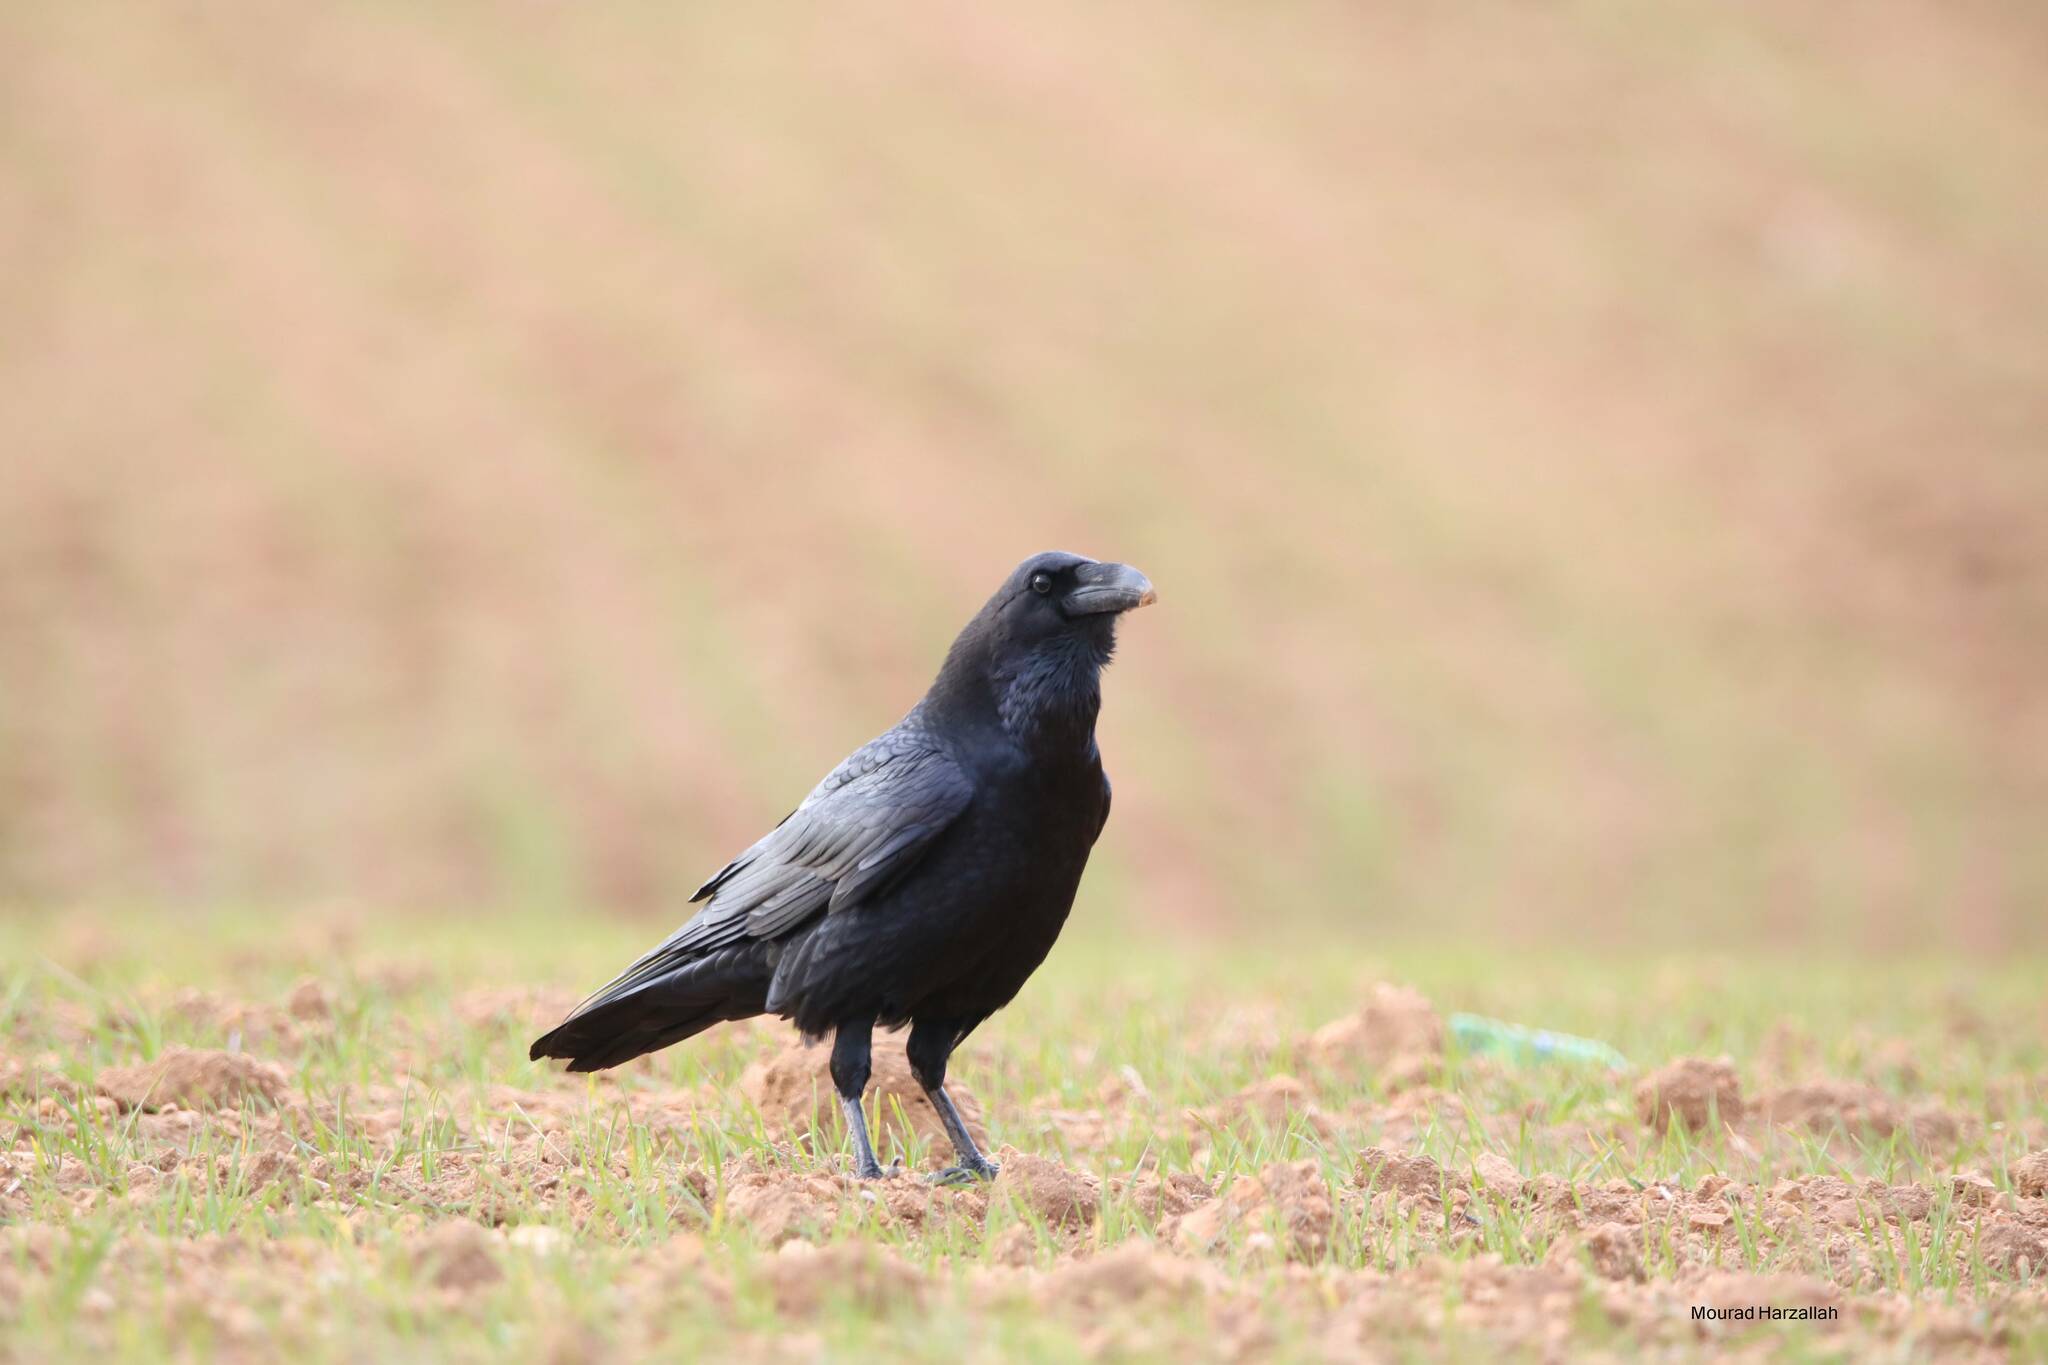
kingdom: Animalia
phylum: Chordata
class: Aves
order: Passeriformes
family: Corvidae
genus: Corvus
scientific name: Corvus corax
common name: Common raven
